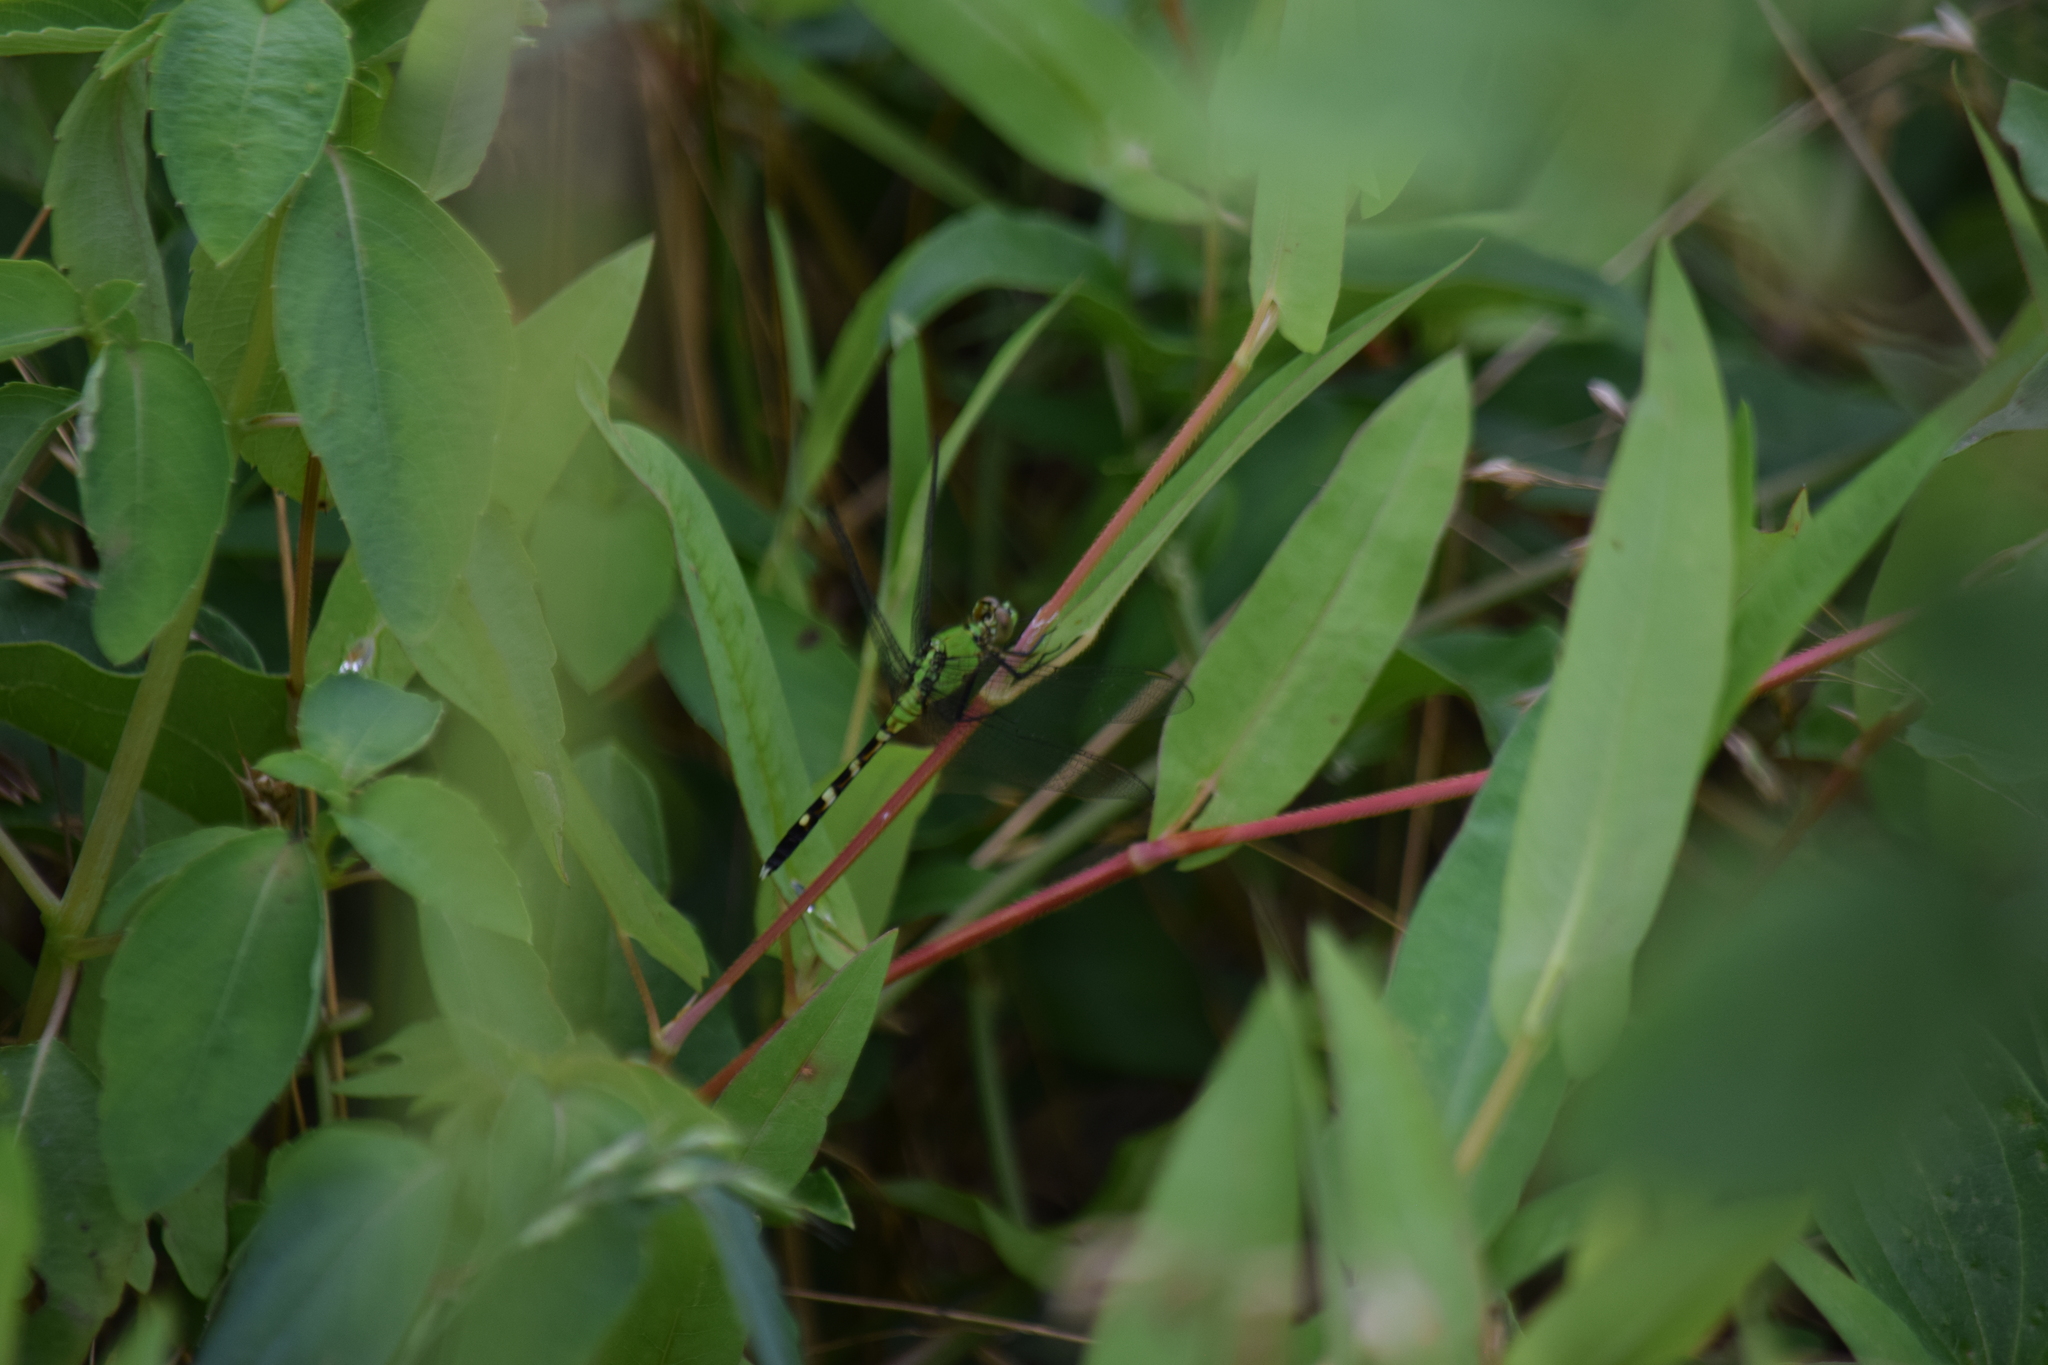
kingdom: Animalia
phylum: Arthropoda
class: Insecta
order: Odonata
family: Libellulidae
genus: Erythemis
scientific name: Erythemis simplicicollis
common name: Eastern pondhawk
